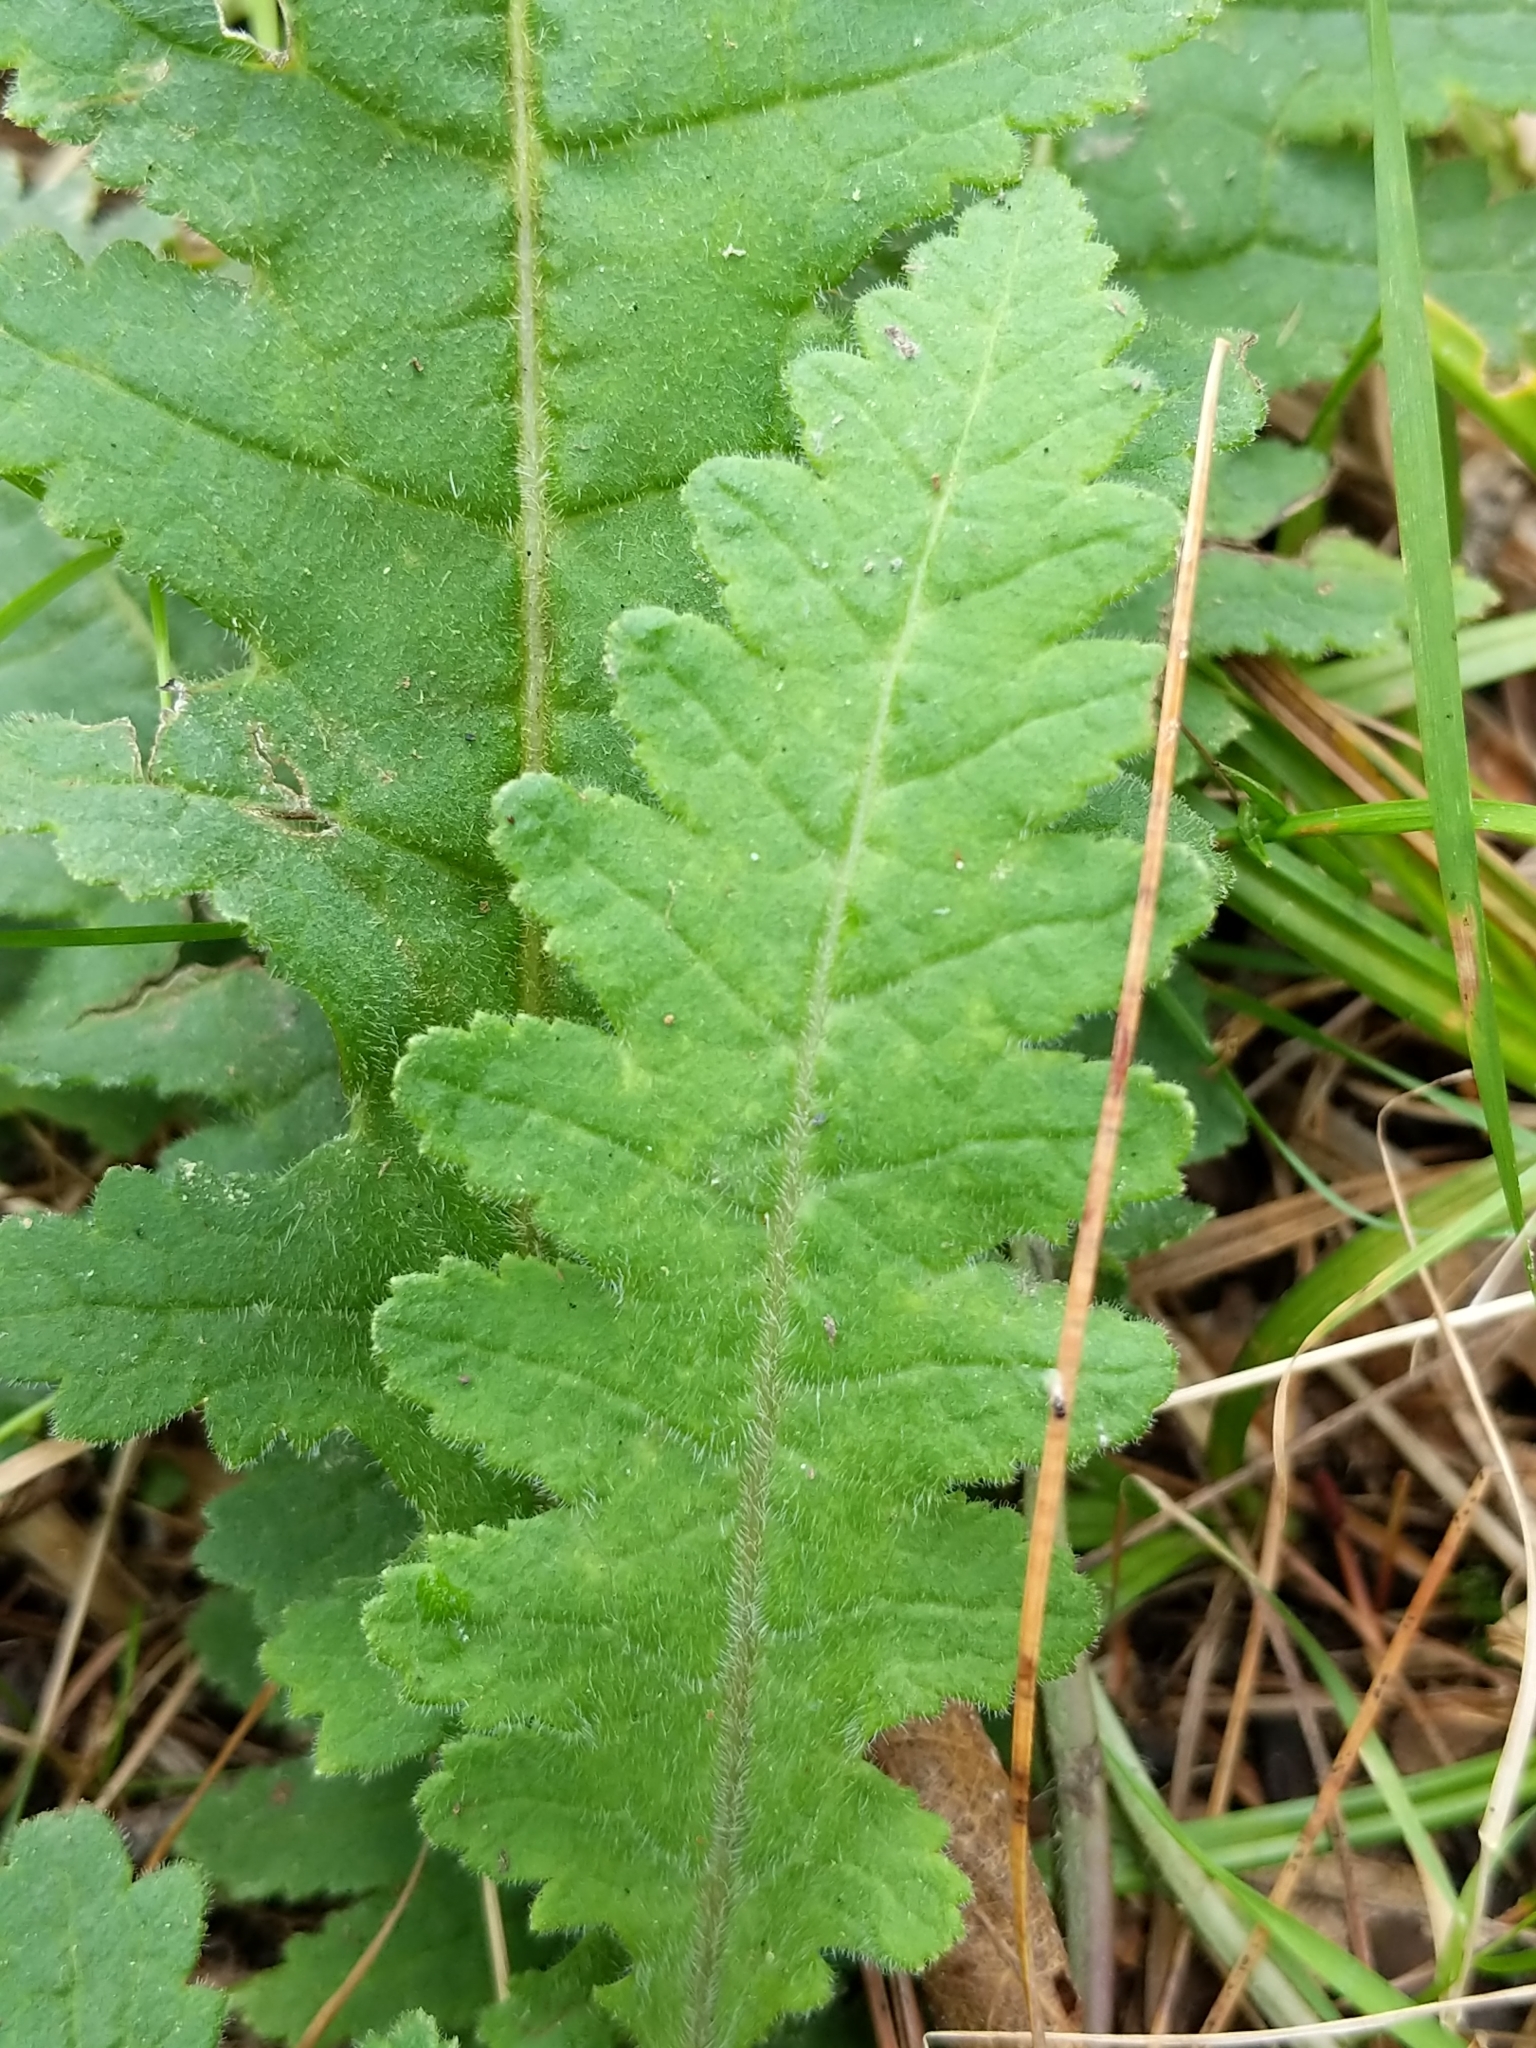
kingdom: Plantae
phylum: Tracheophyta
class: Magnoliopsida
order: Lamiales
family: Orobanchaceae
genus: Pedicularis
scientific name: Pedicularis canadensis
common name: Early lousewort
